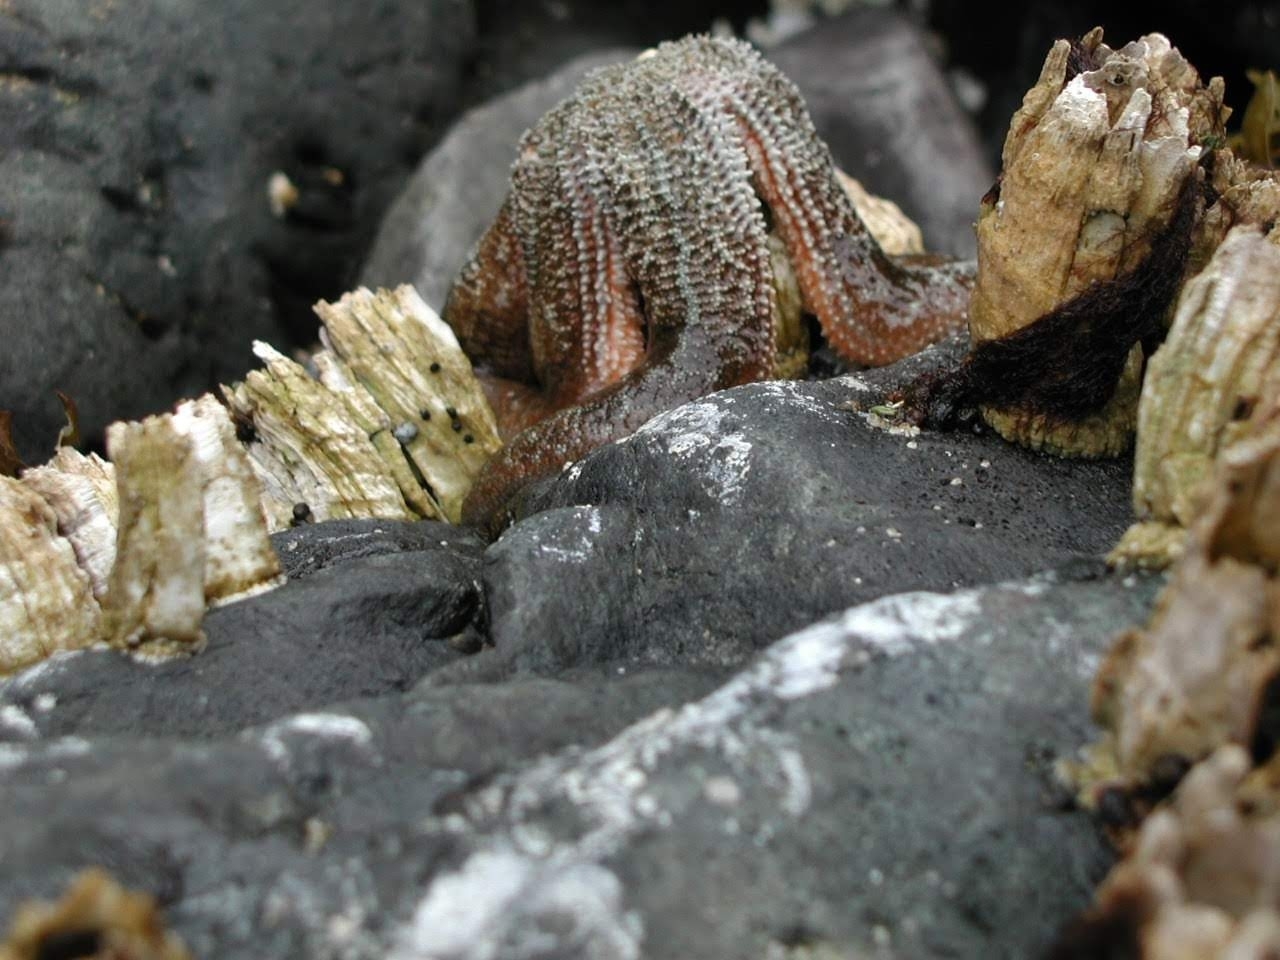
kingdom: Animalia
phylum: Echinodermata
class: Asteroidea
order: Forcipulatida
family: Asteriidae
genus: Evasterias
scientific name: Evasterias troschelii
